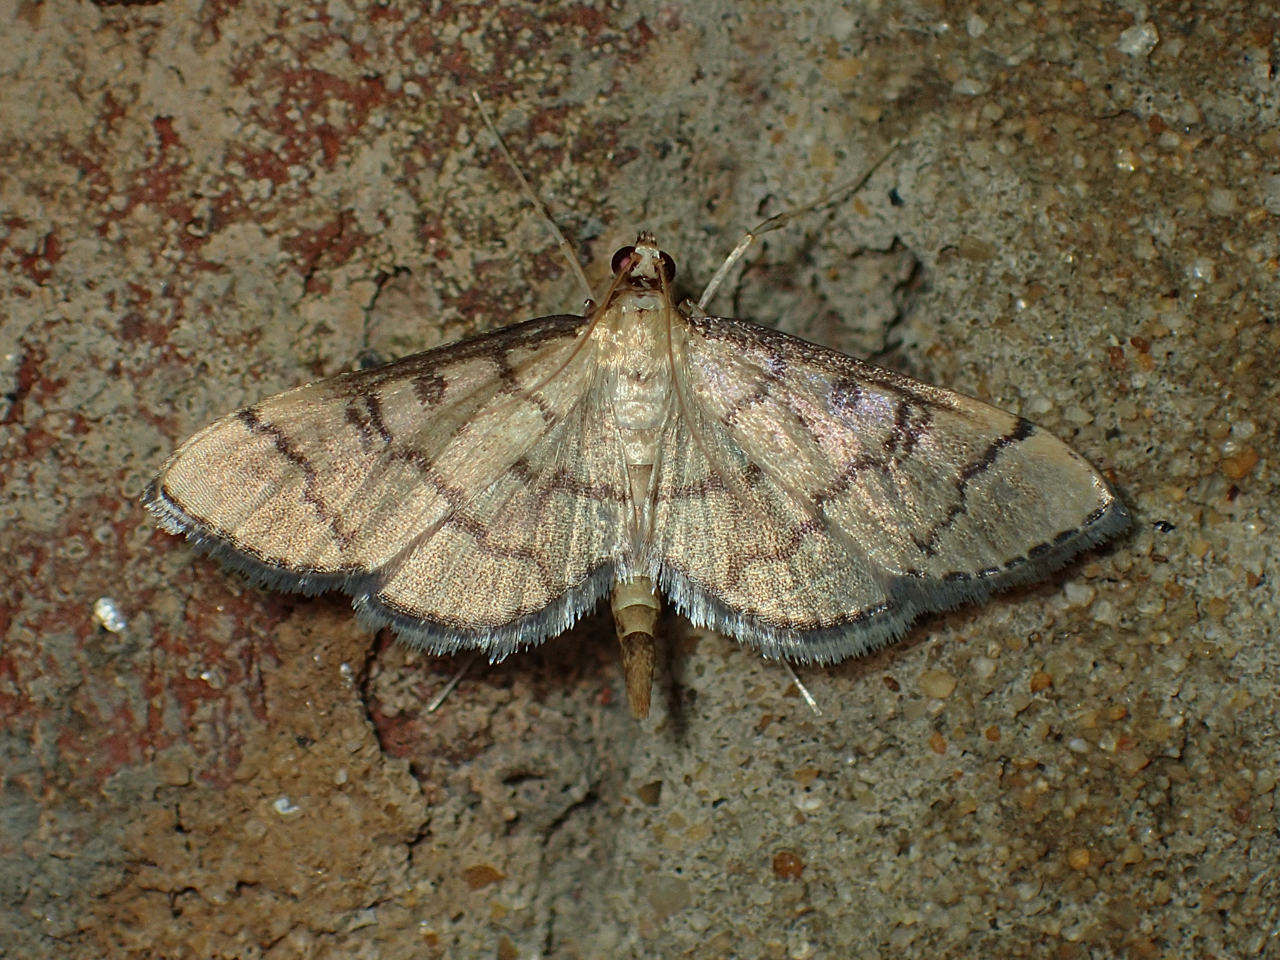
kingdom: Animalia
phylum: Arthropoda
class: Insecta
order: Lepidoptera
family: Crambidae
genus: Lamprosema
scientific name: Lamprosema Blepharomastix ranalis
